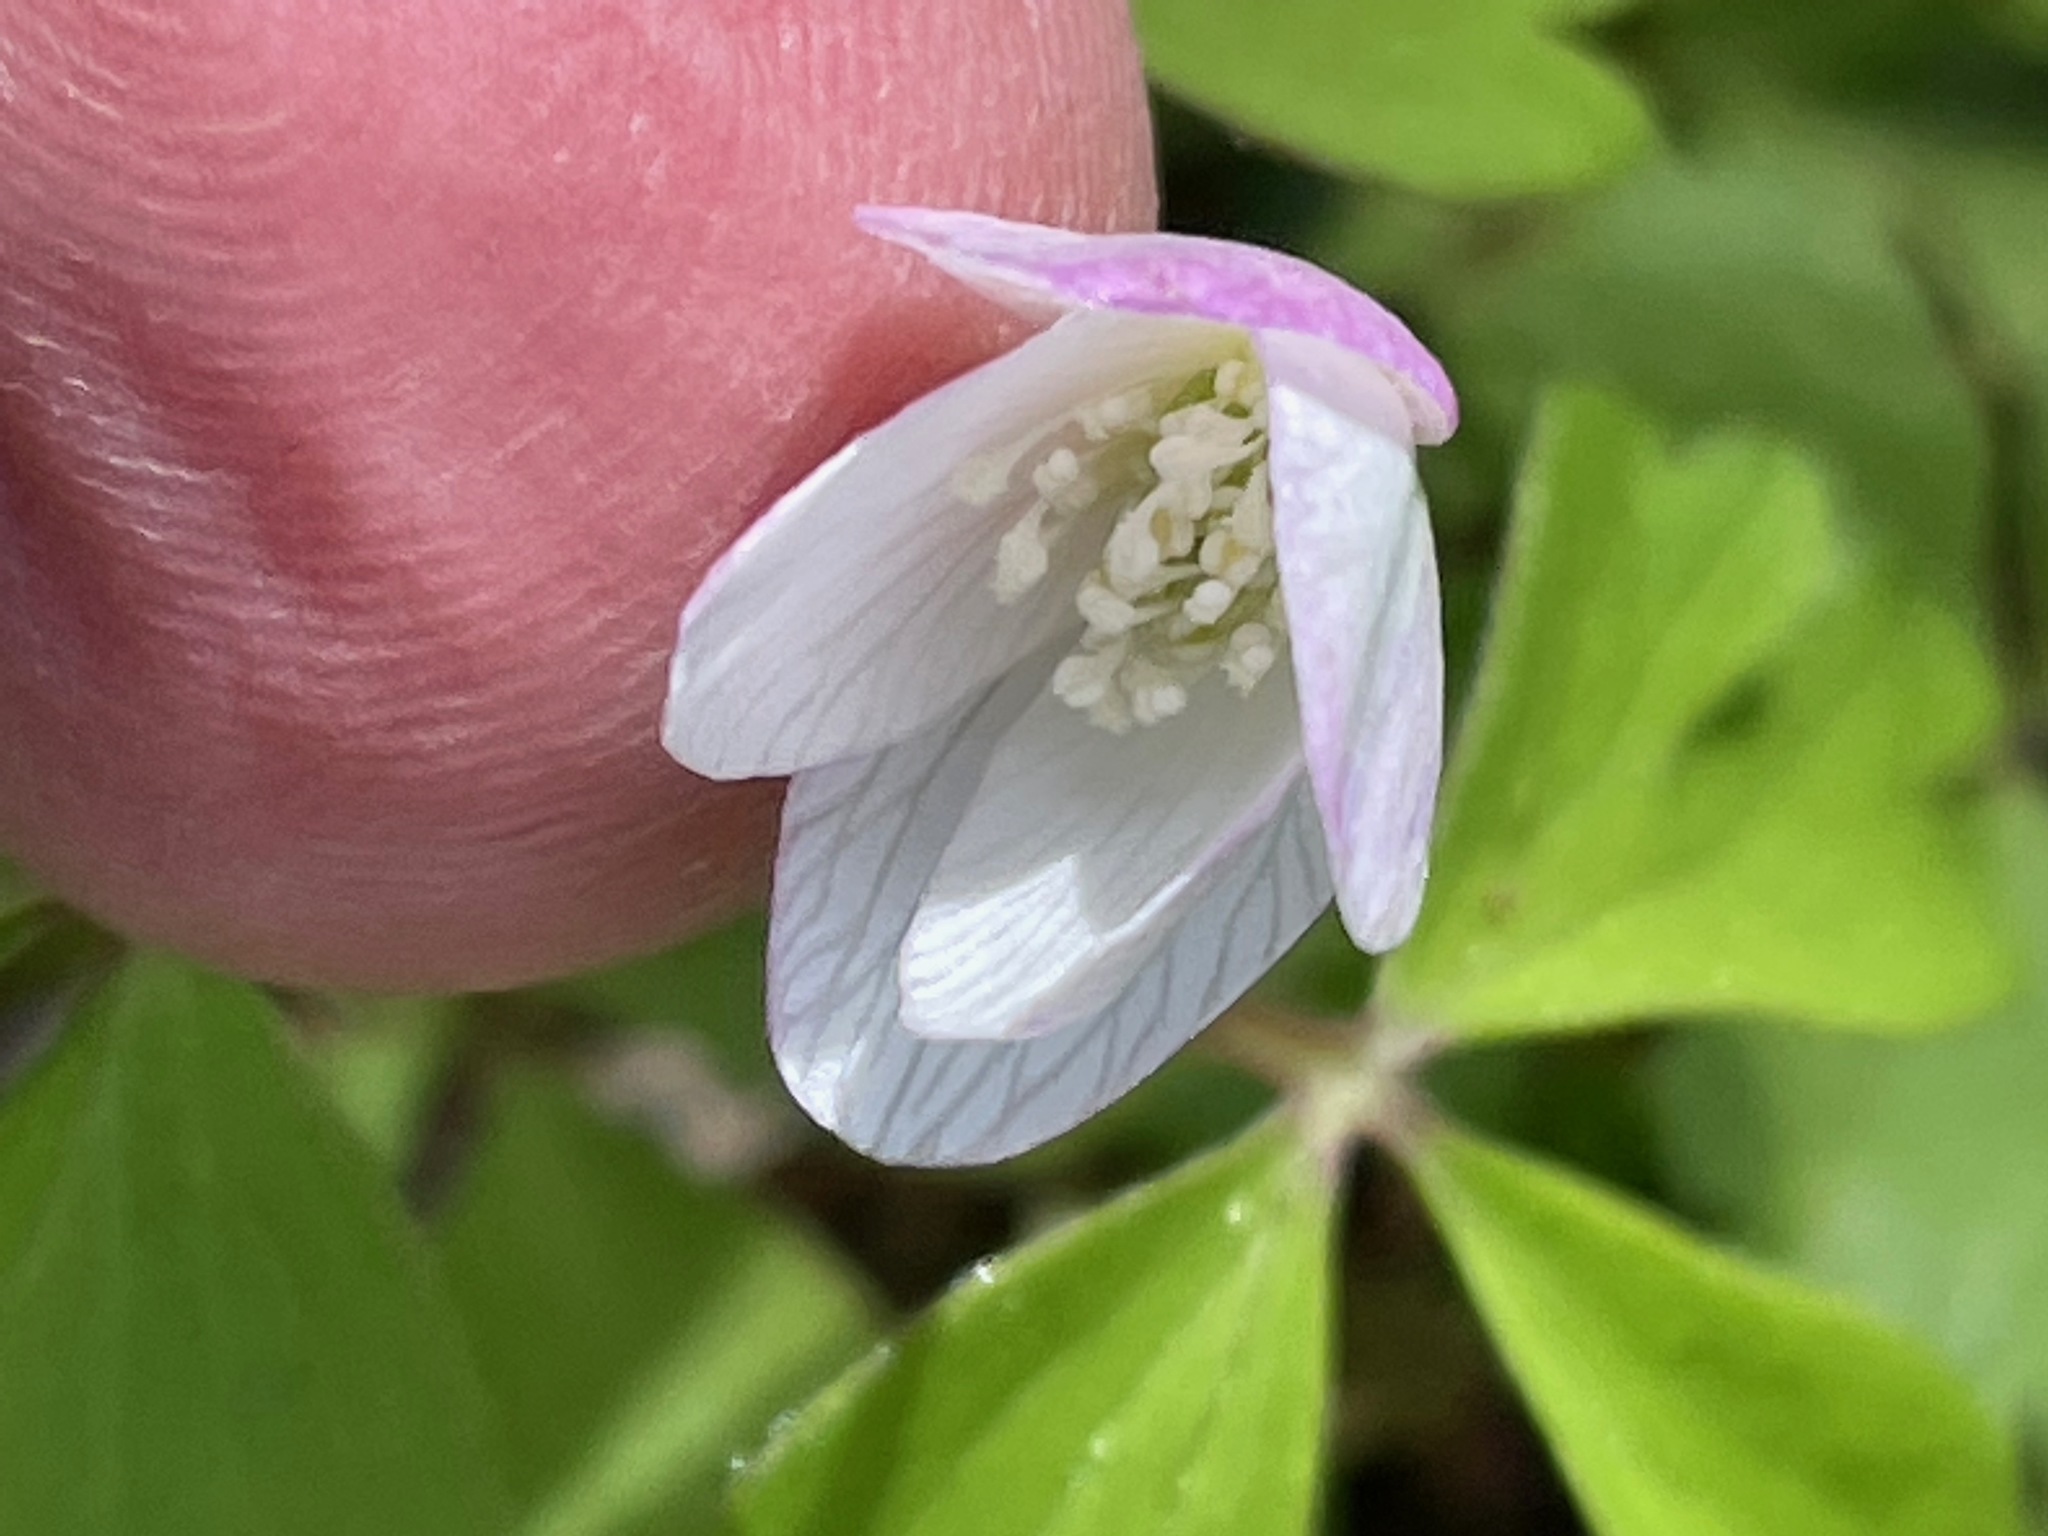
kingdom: Plantae
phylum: Tracheophyta
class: Magnoliopsida
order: Ranunculales
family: Ranunculaceae
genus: Anemone
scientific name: Anemone quinquefolia
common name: Wood anemone
